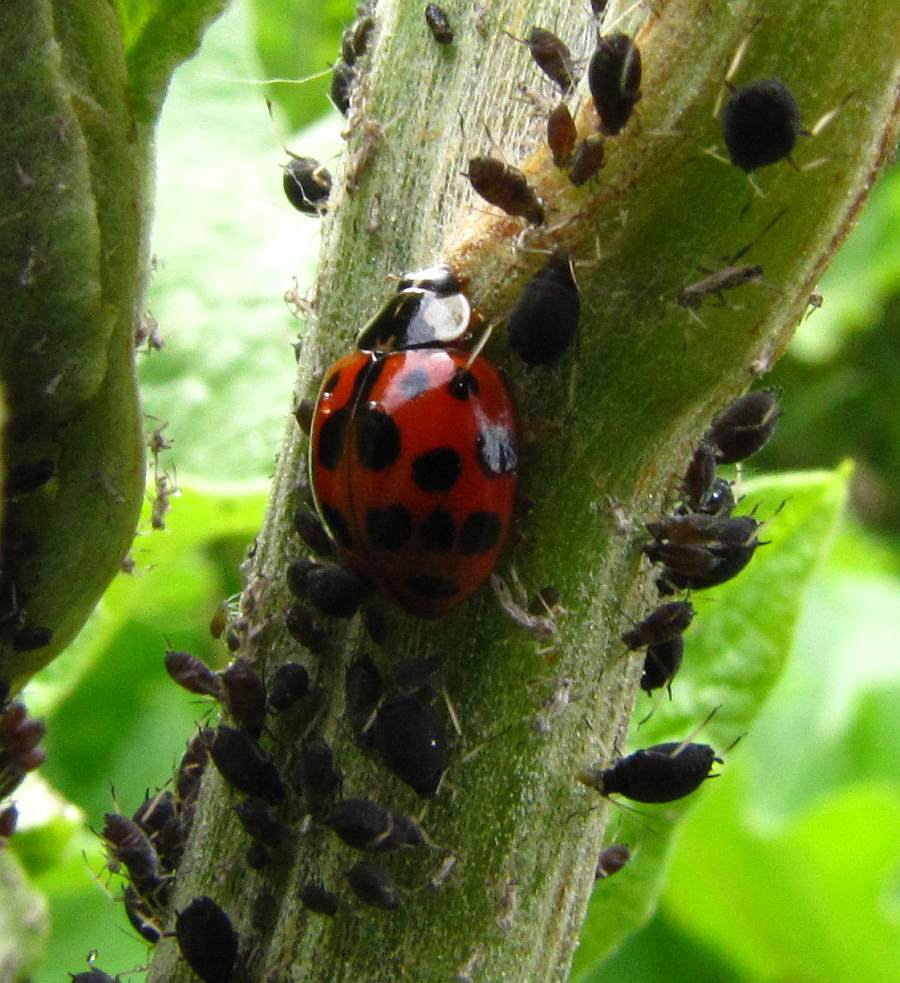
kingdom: Animalia
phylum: Arthropoda
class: Insecta
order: Coleoptera
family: Coccinellidae
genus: Harmonia
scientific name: Harmonia axyridis
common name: Harlequin ladybird
